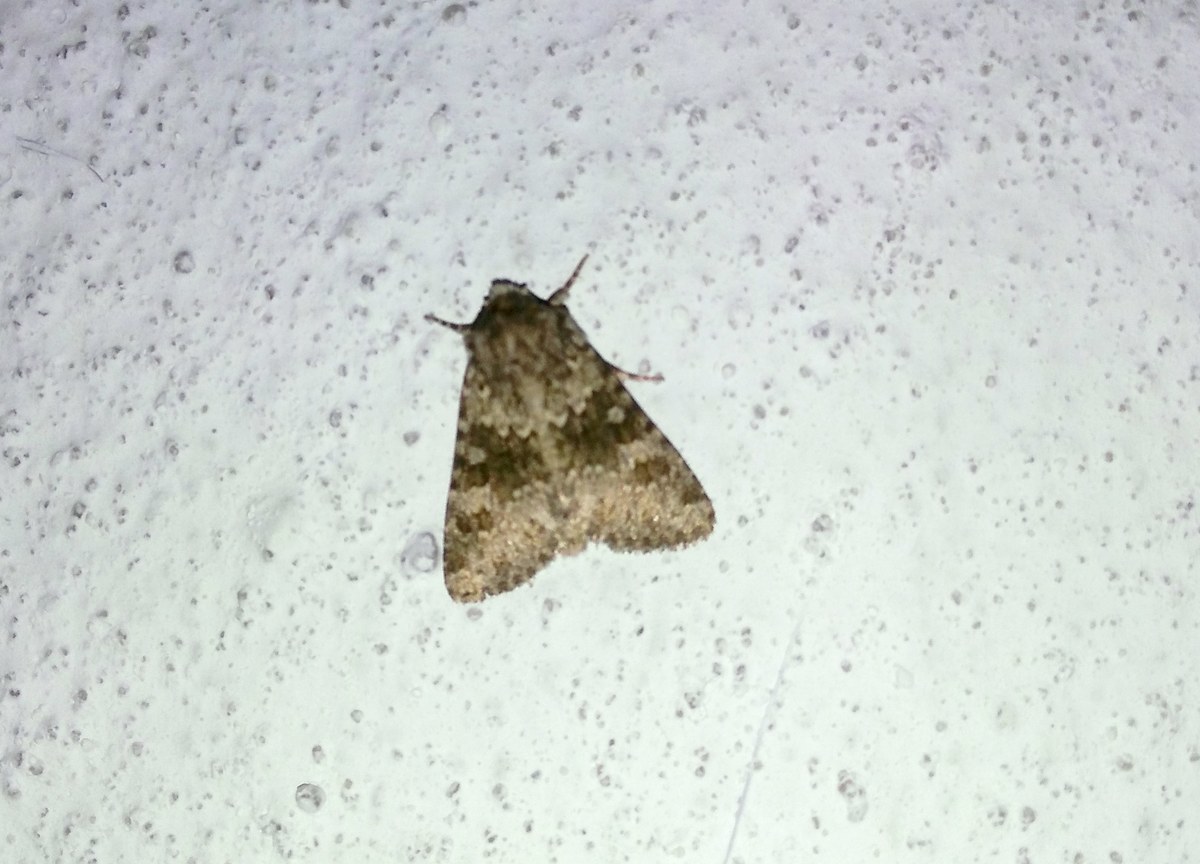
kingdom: Animalia
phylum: Arthropoda
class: Insecta
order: Lepidoptera
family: Noctuidae
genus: Hecatera
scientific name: Hecatera dysodea
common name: Small ranunculus
